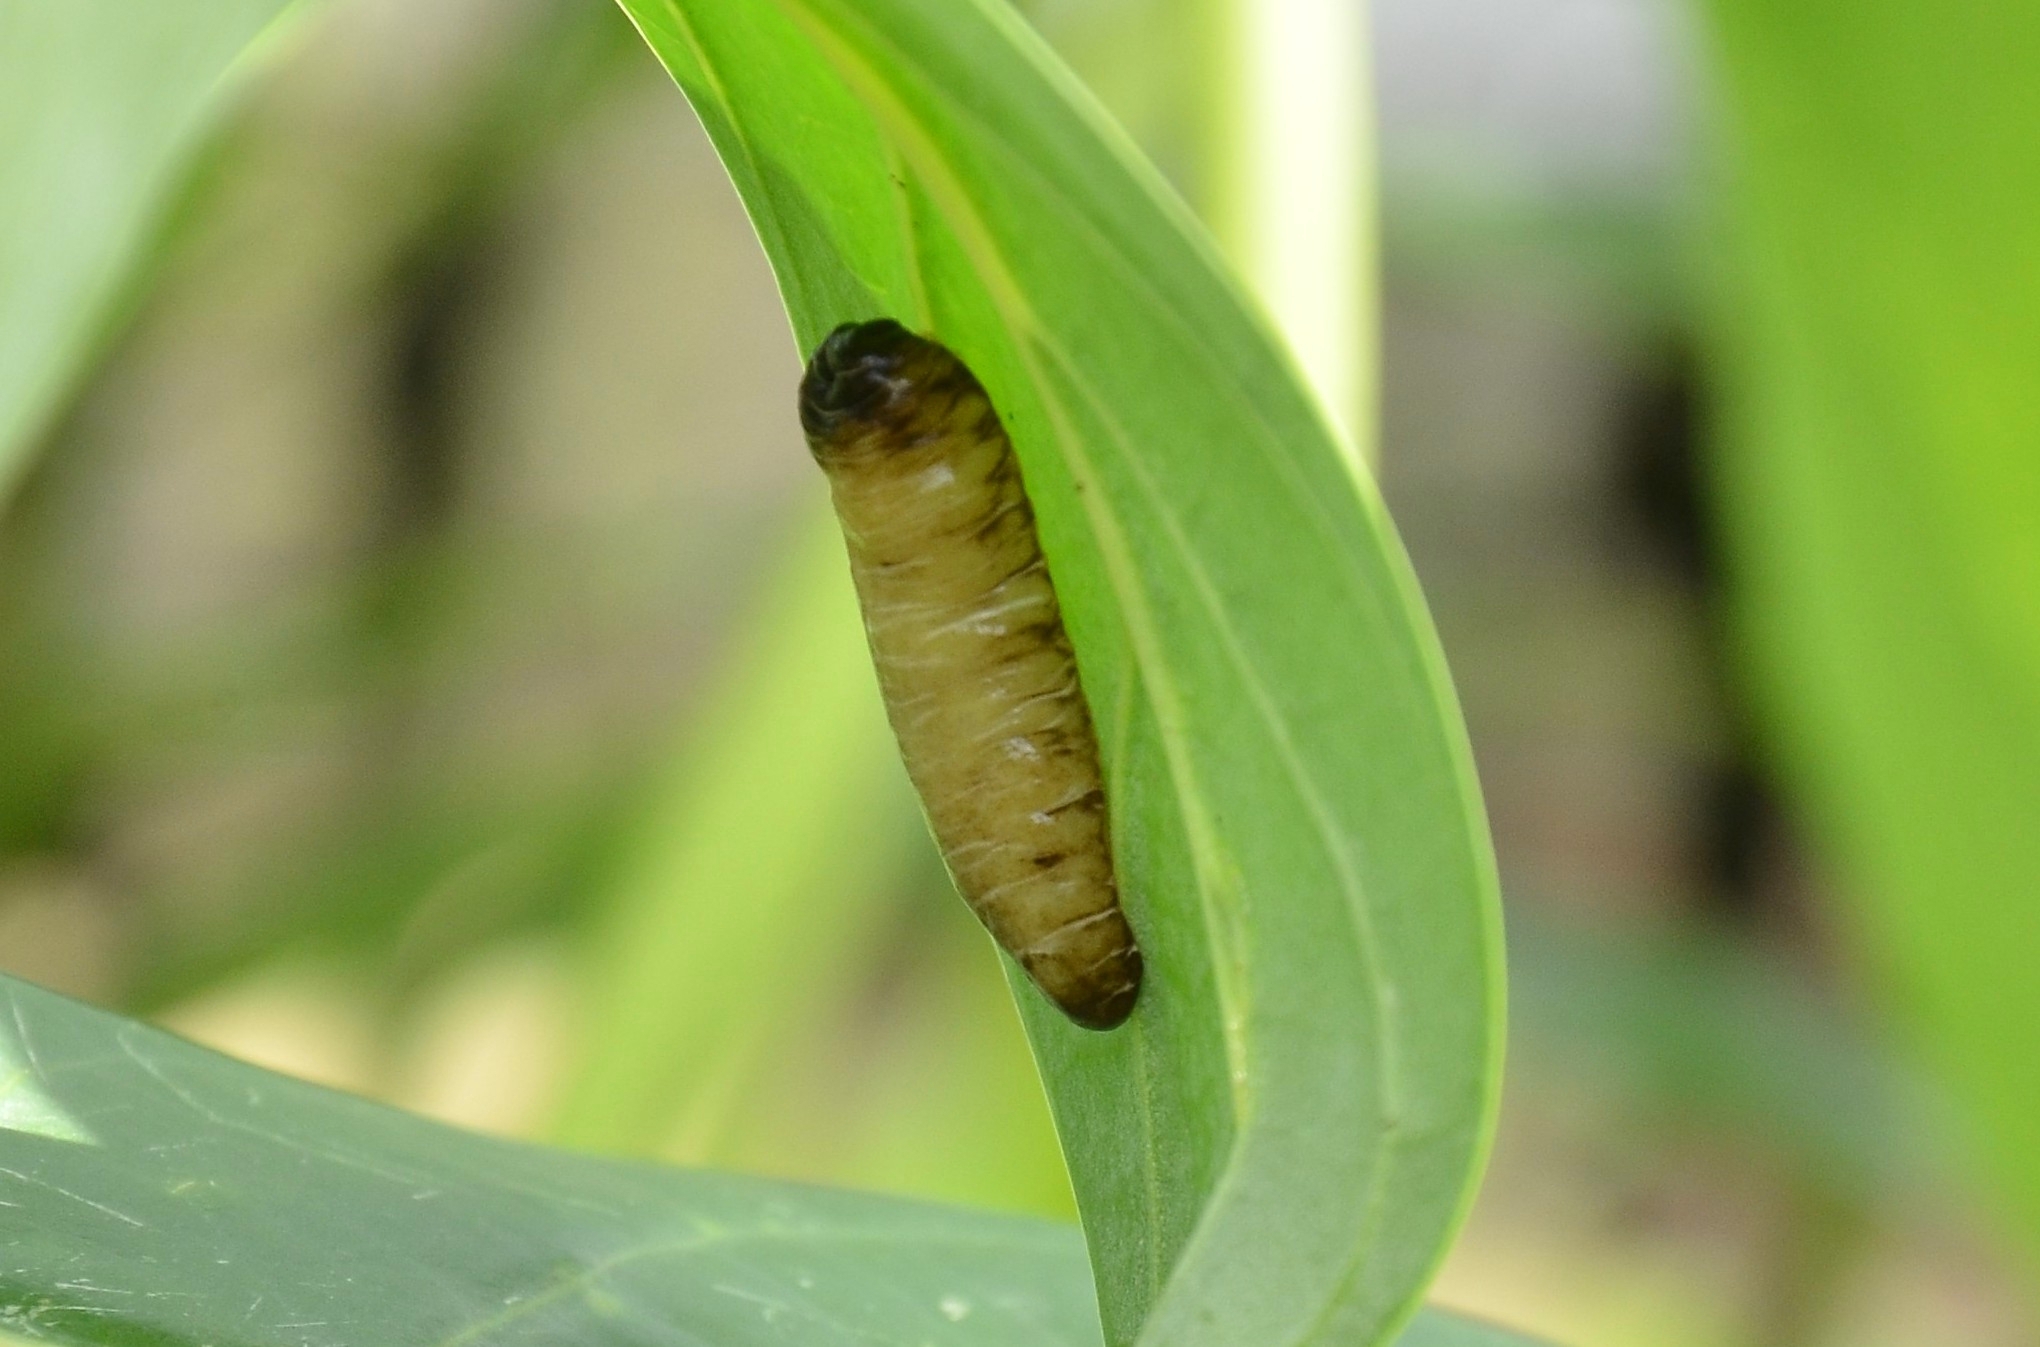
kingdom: Animalia
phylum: Mollusca
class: Gastropoda
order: Systellommatophora
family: Veronicellidae
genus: Laevicaulis
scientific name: Laevicaulis haroldi
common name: Caterpillar slug
